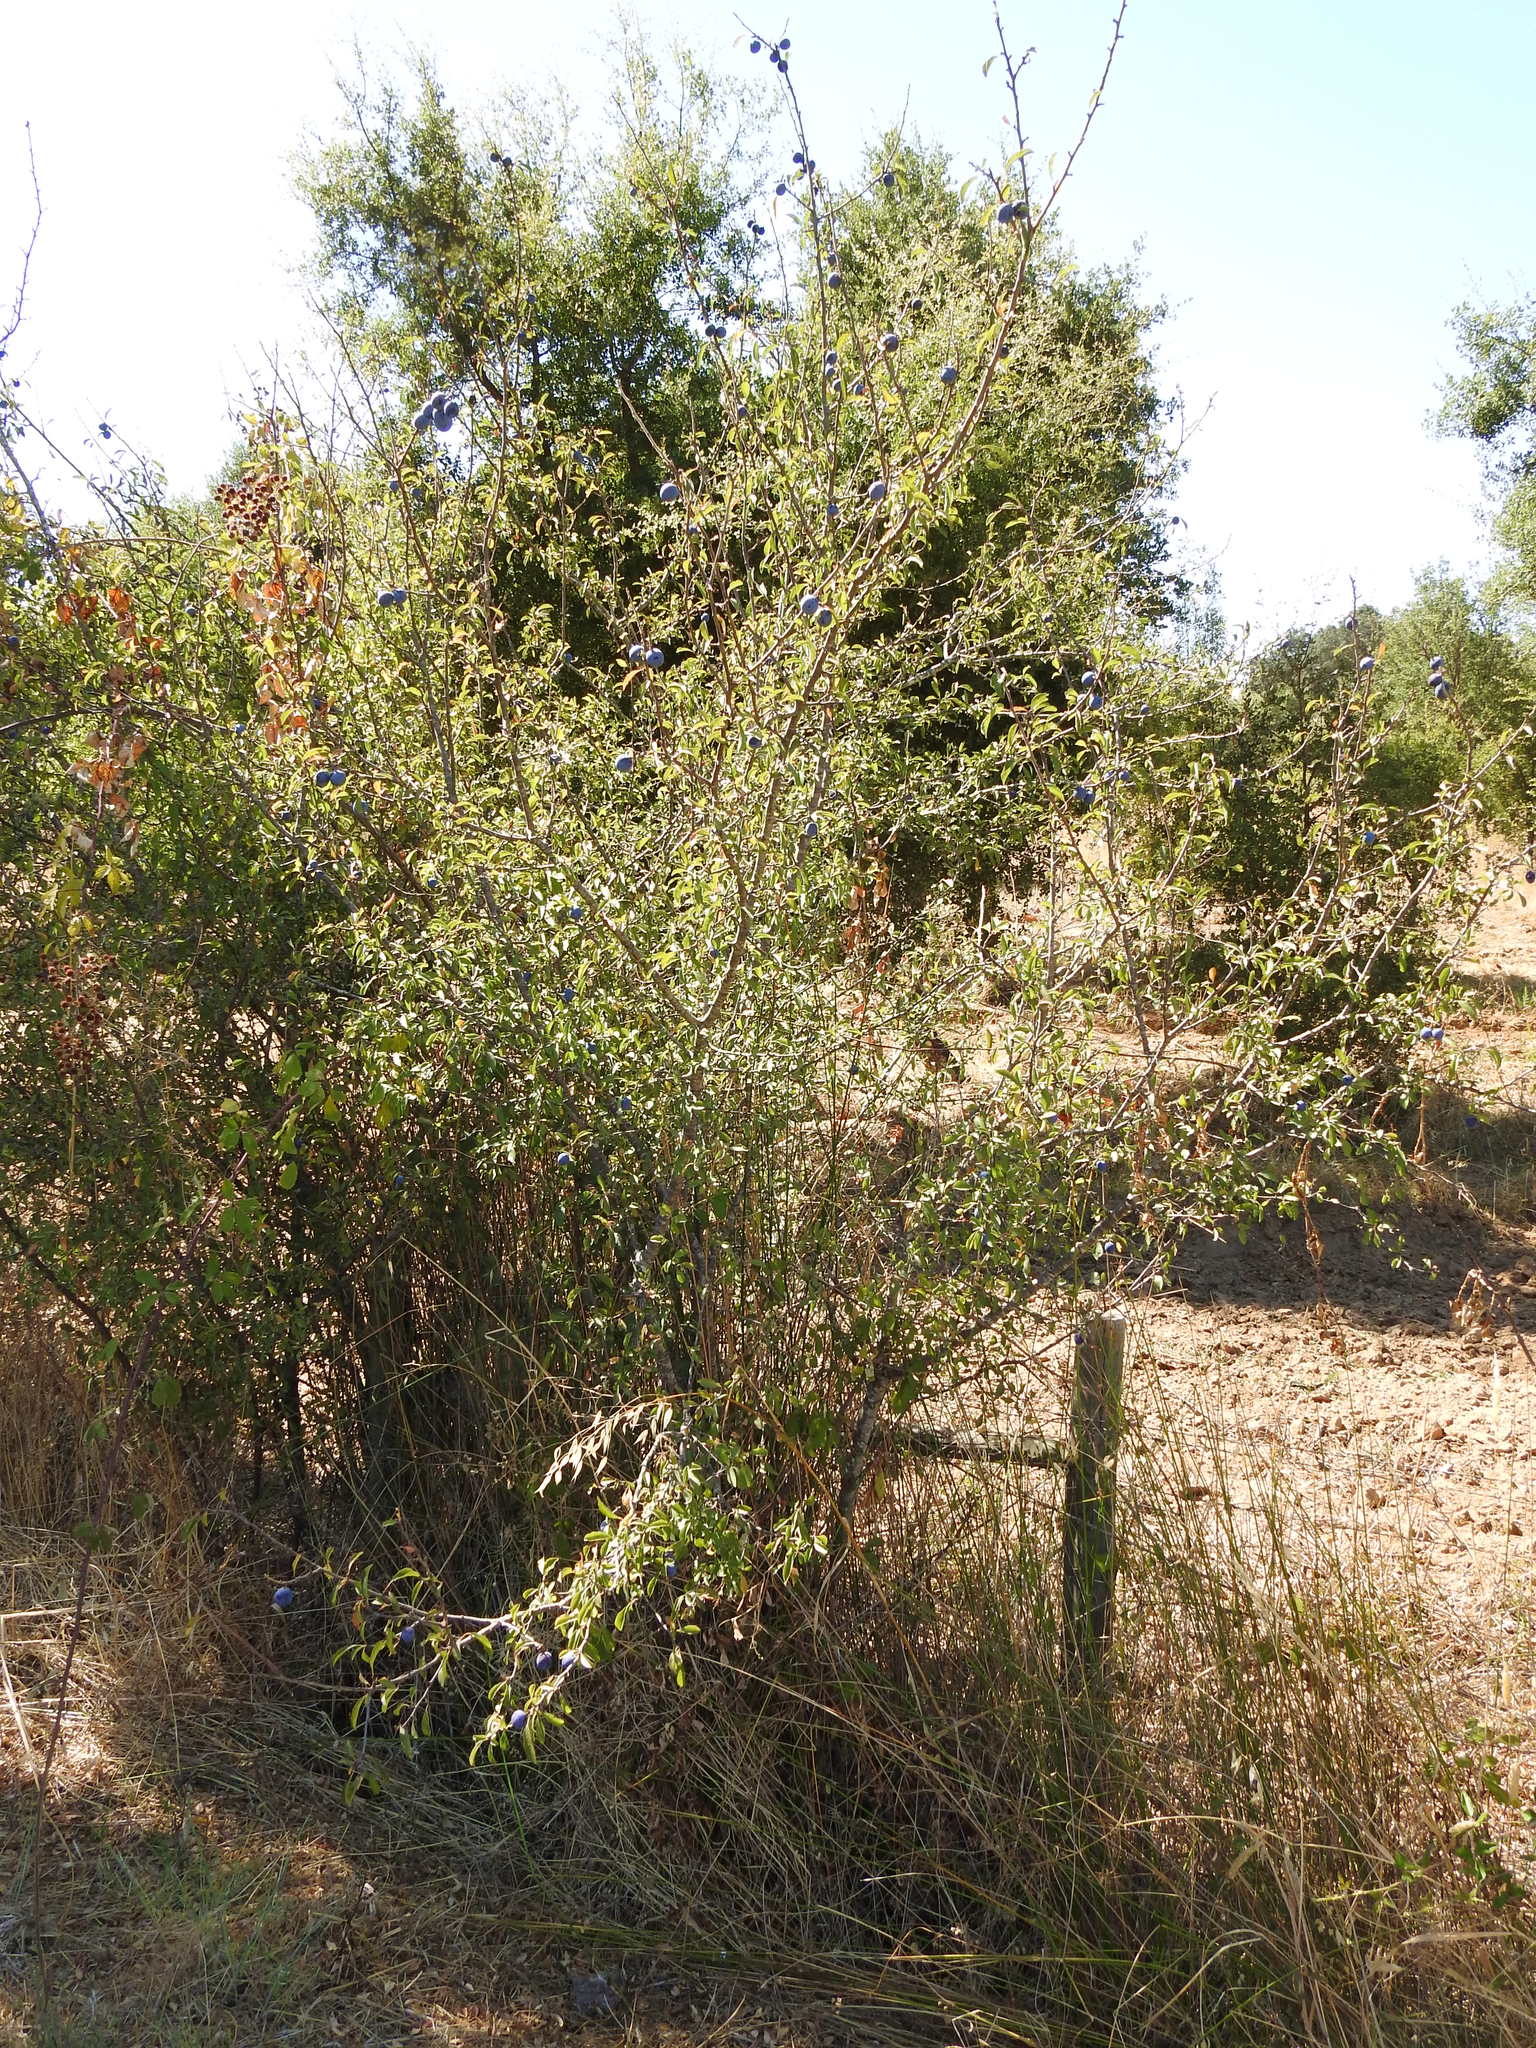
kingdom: Plantae
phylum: Tracheophyta
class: Magnoliopsida
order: Rosales
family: Rosaceae
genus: Prunus
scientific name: Prunus spinosa
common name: Blackthorn
